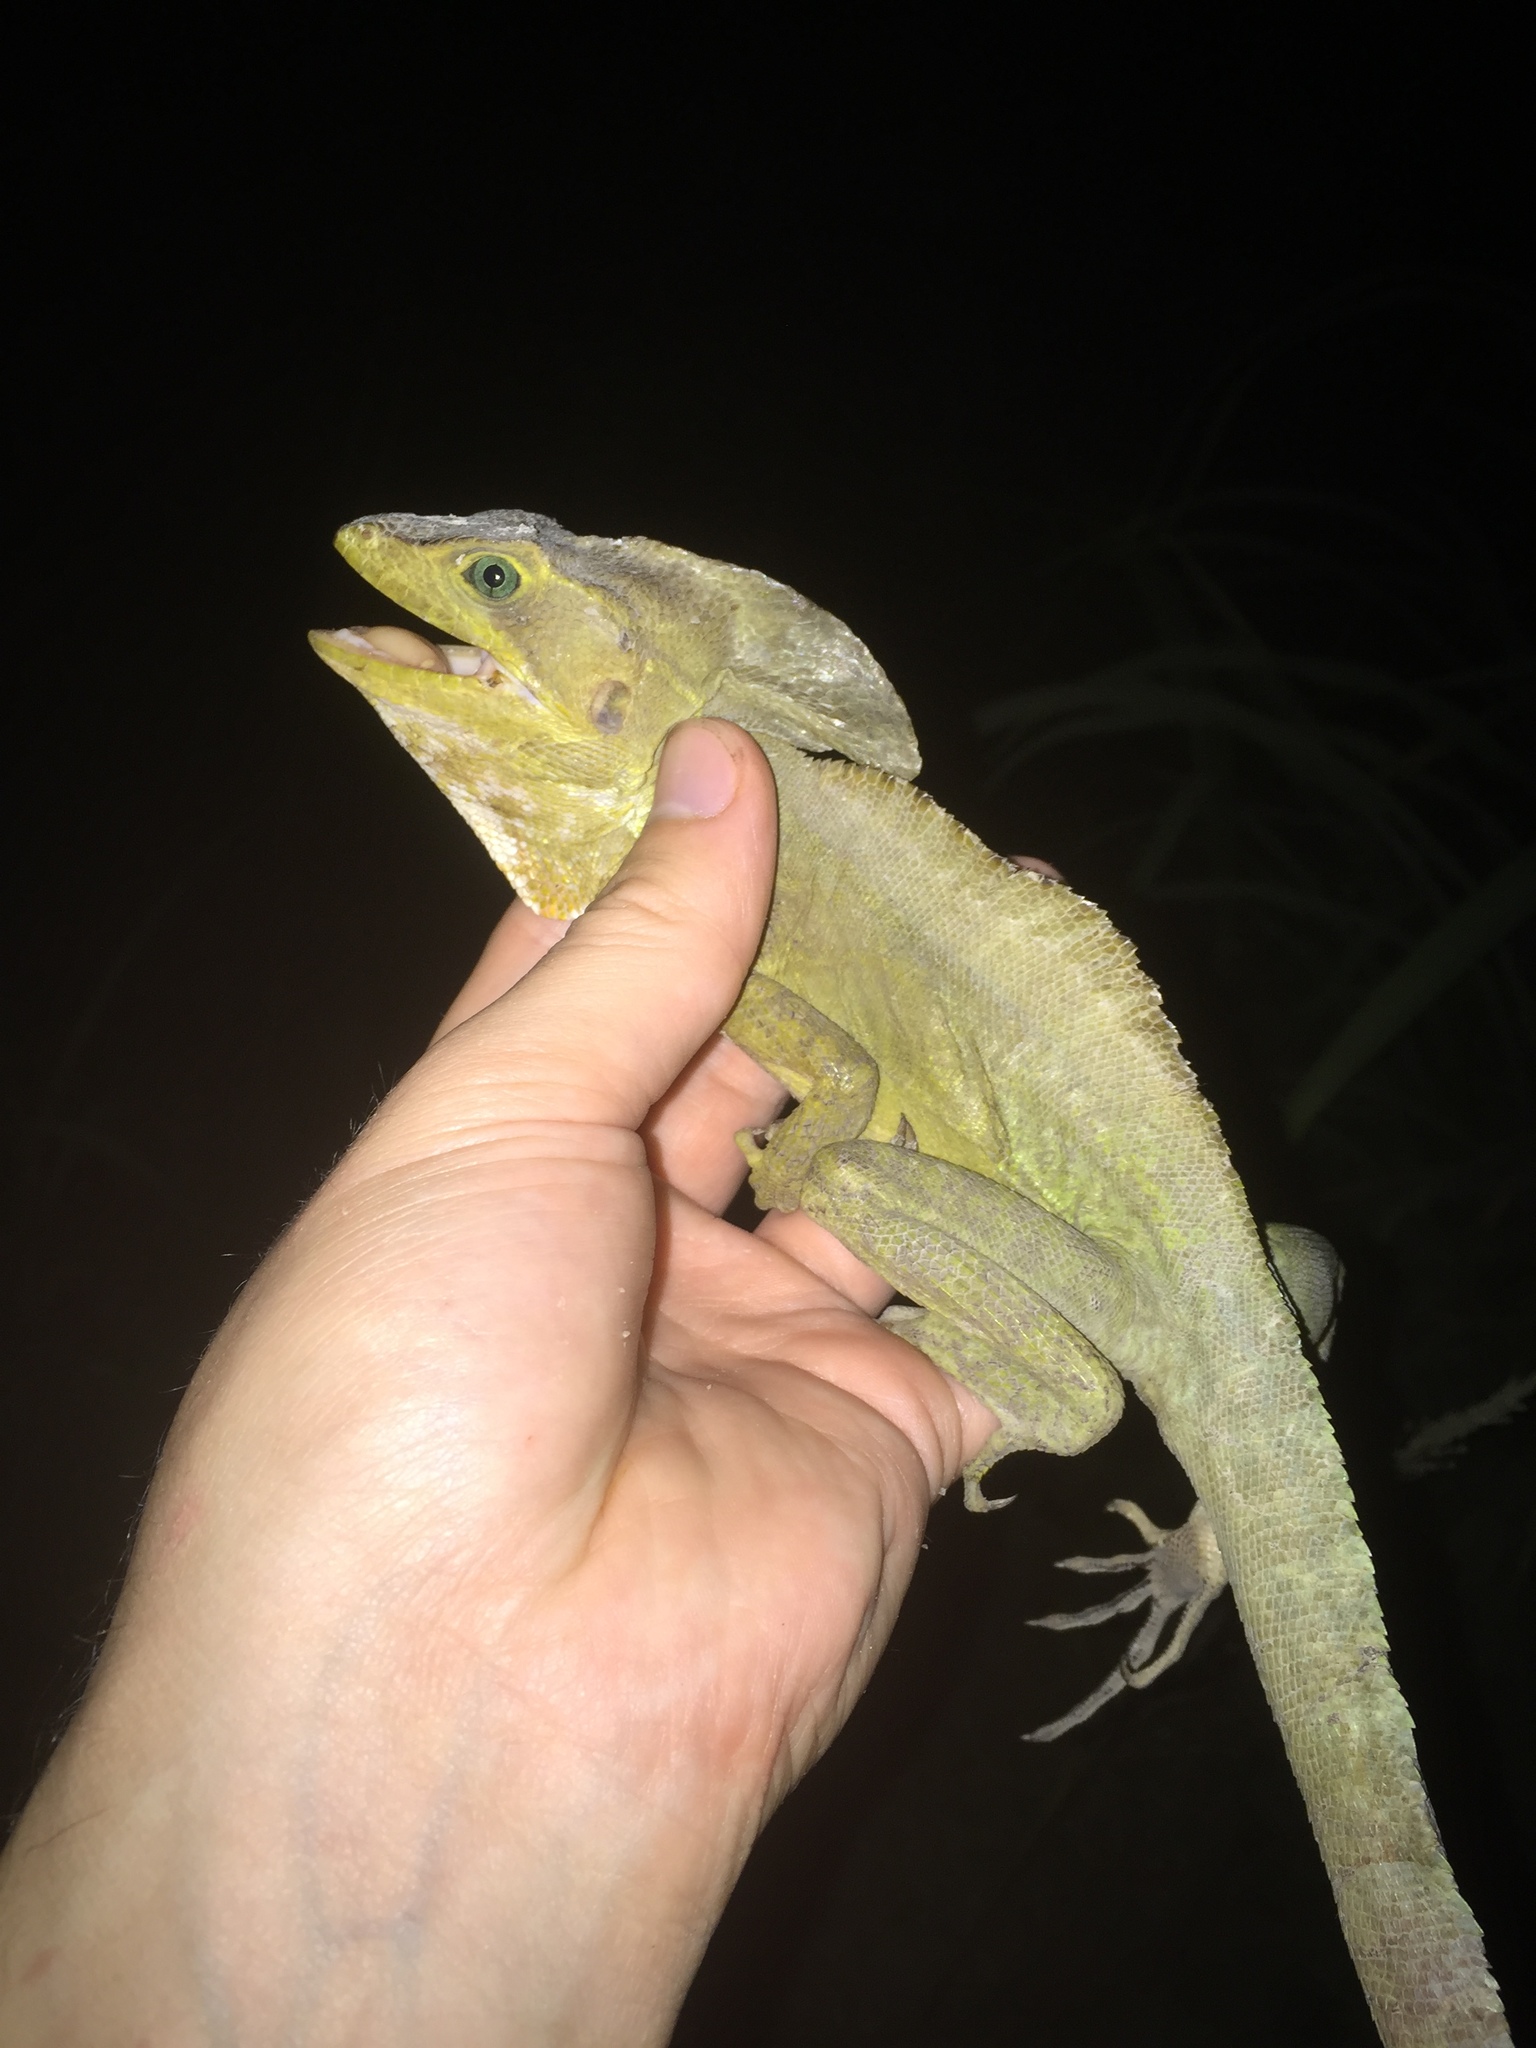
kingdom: Animalia
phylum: Chordata
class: Squamata
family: Corytophanidae
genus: Basiliscus
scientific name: Basiliscus vittatus
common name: Brown basilisk
